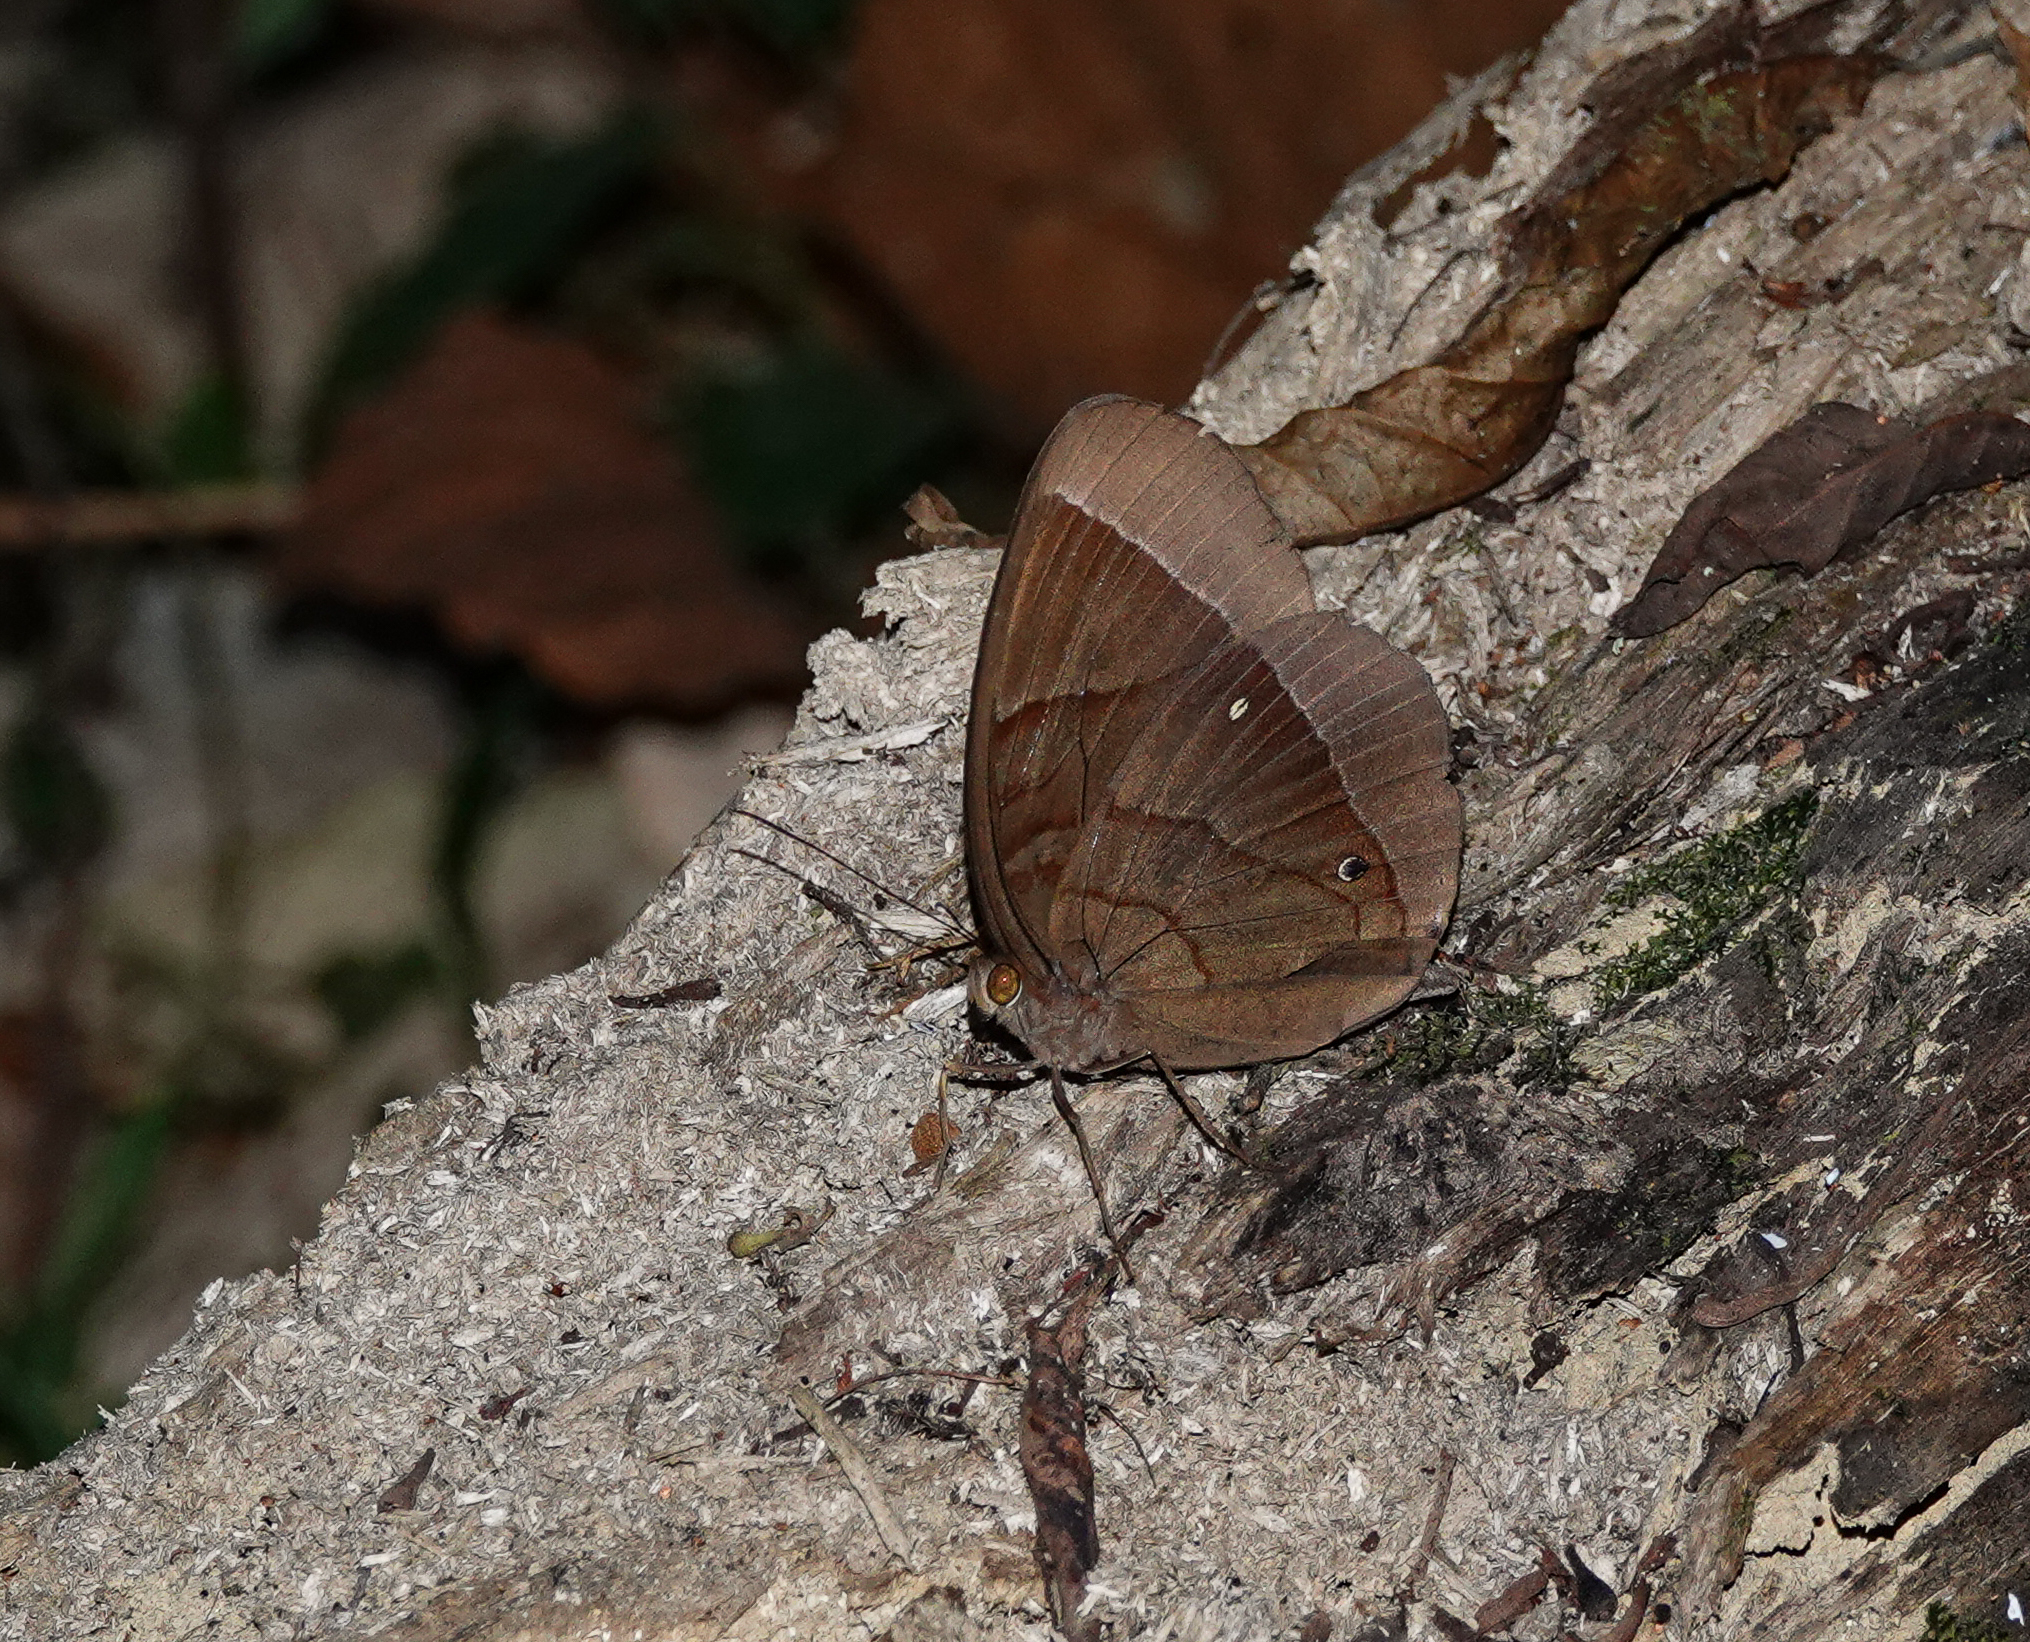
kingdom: Animalia
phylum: Arthropoda
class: Insecta
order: Lepidoptera
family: Nymphalidae
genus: Thaumantis
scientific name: Thaumantis diores
